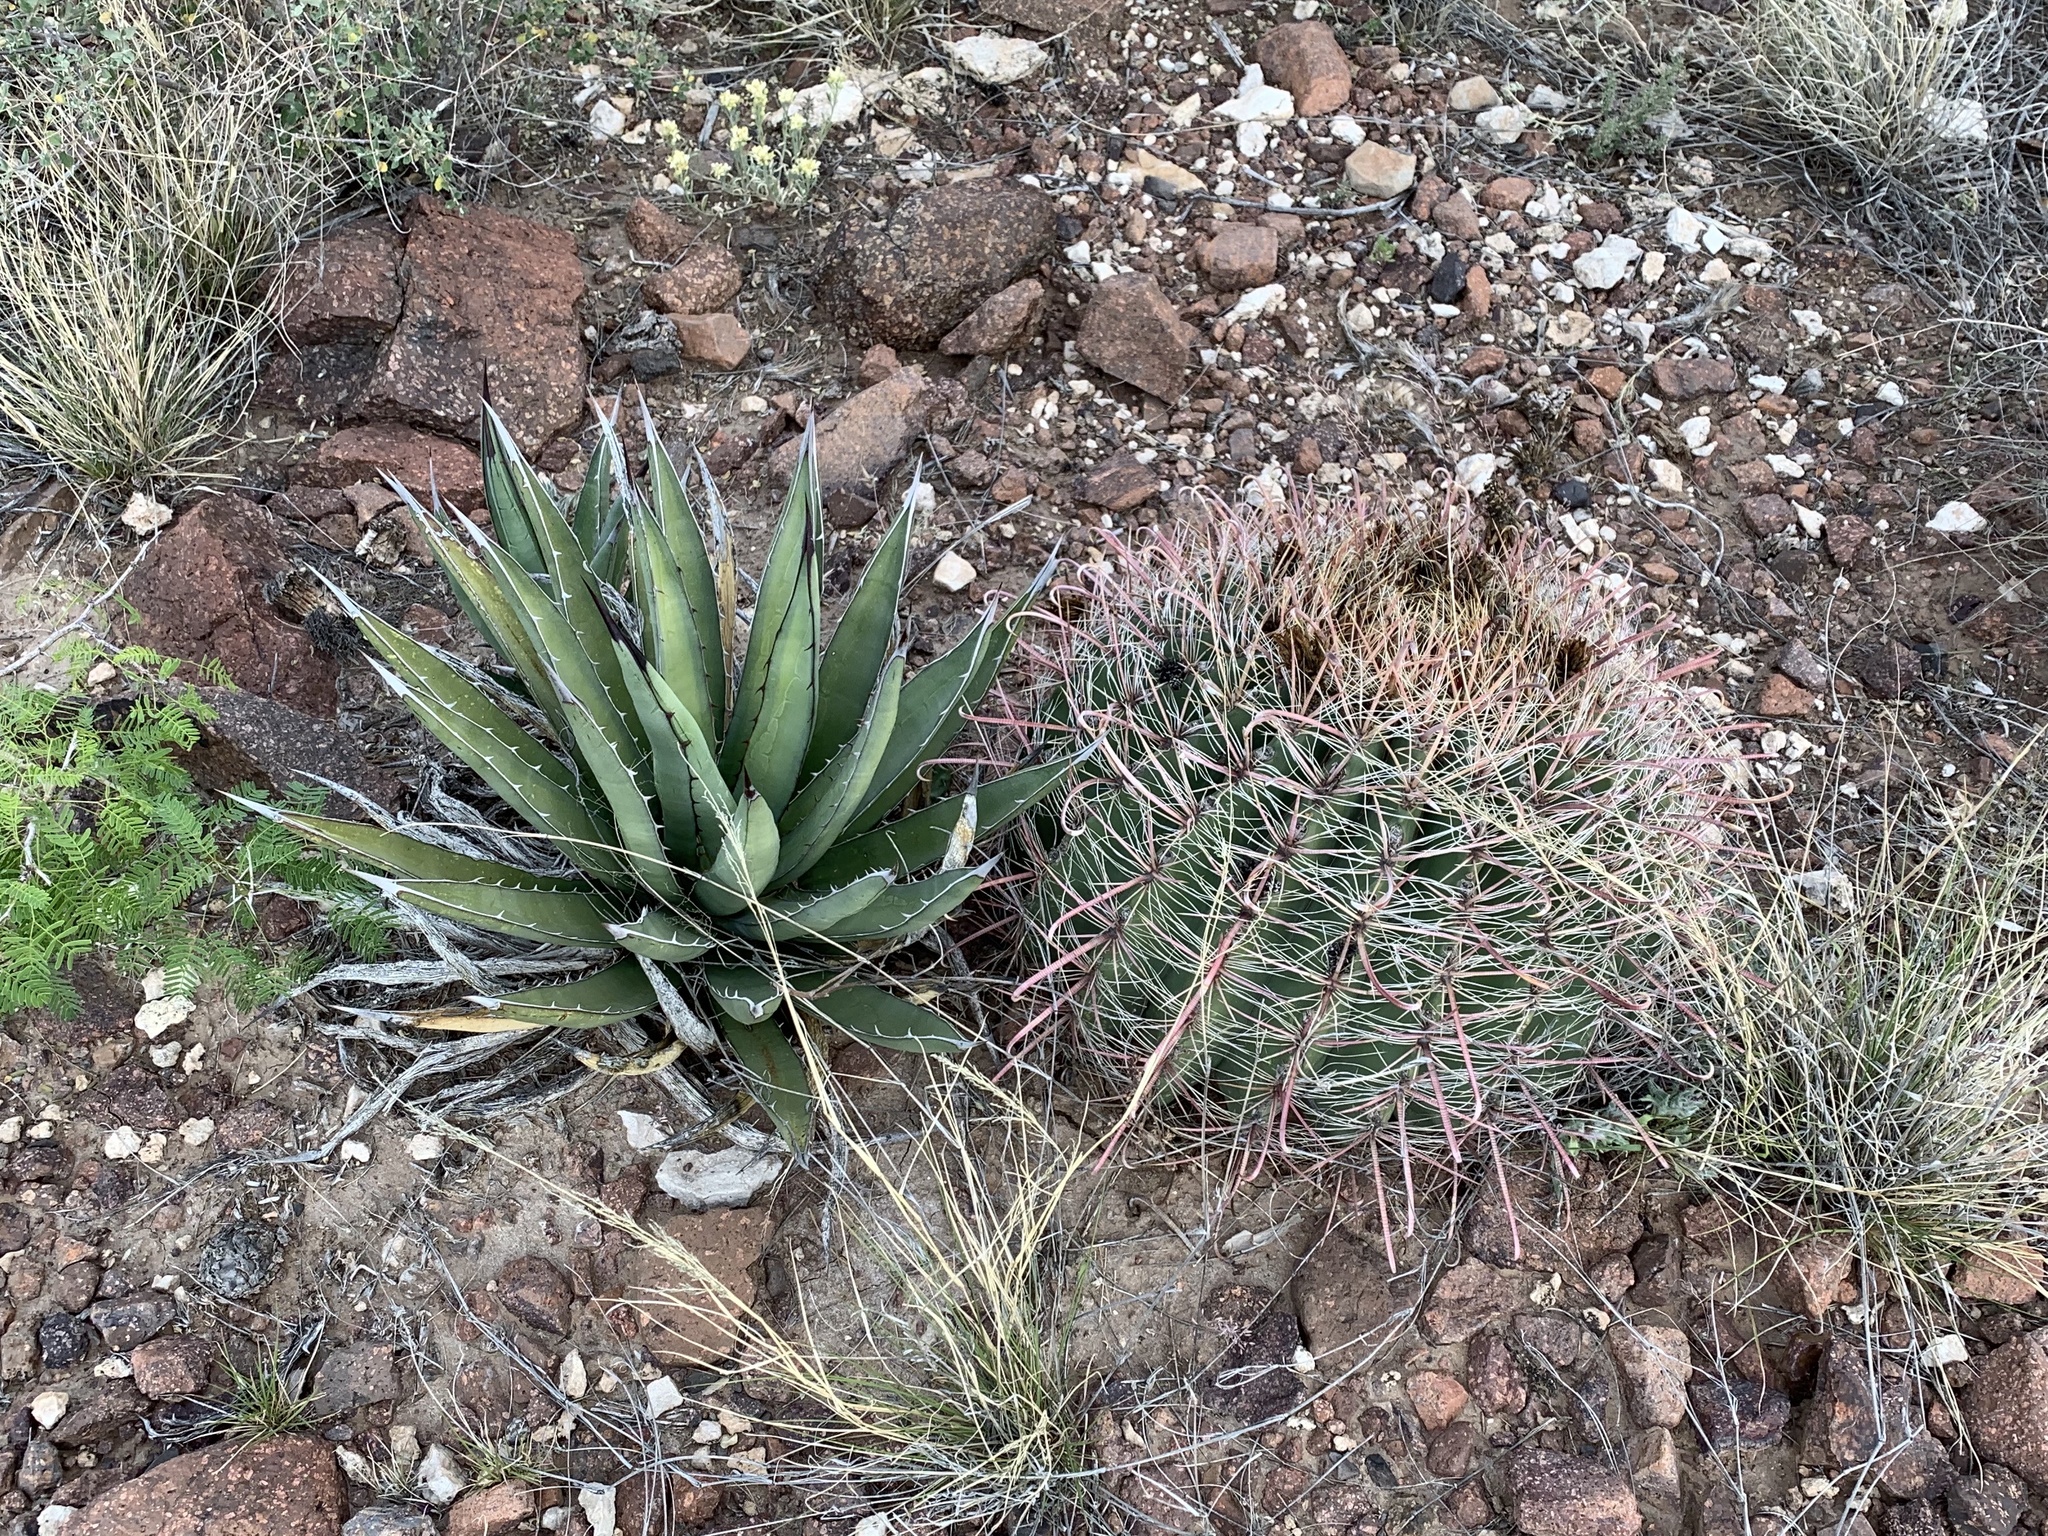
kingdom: Plantae
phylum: Tracheophyta
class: Magnoliopsida
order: Caryophyllales
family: Cactaceae
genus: Ferocactus
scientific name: Ferocactus wislizeni
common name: Candy barrel cactus
